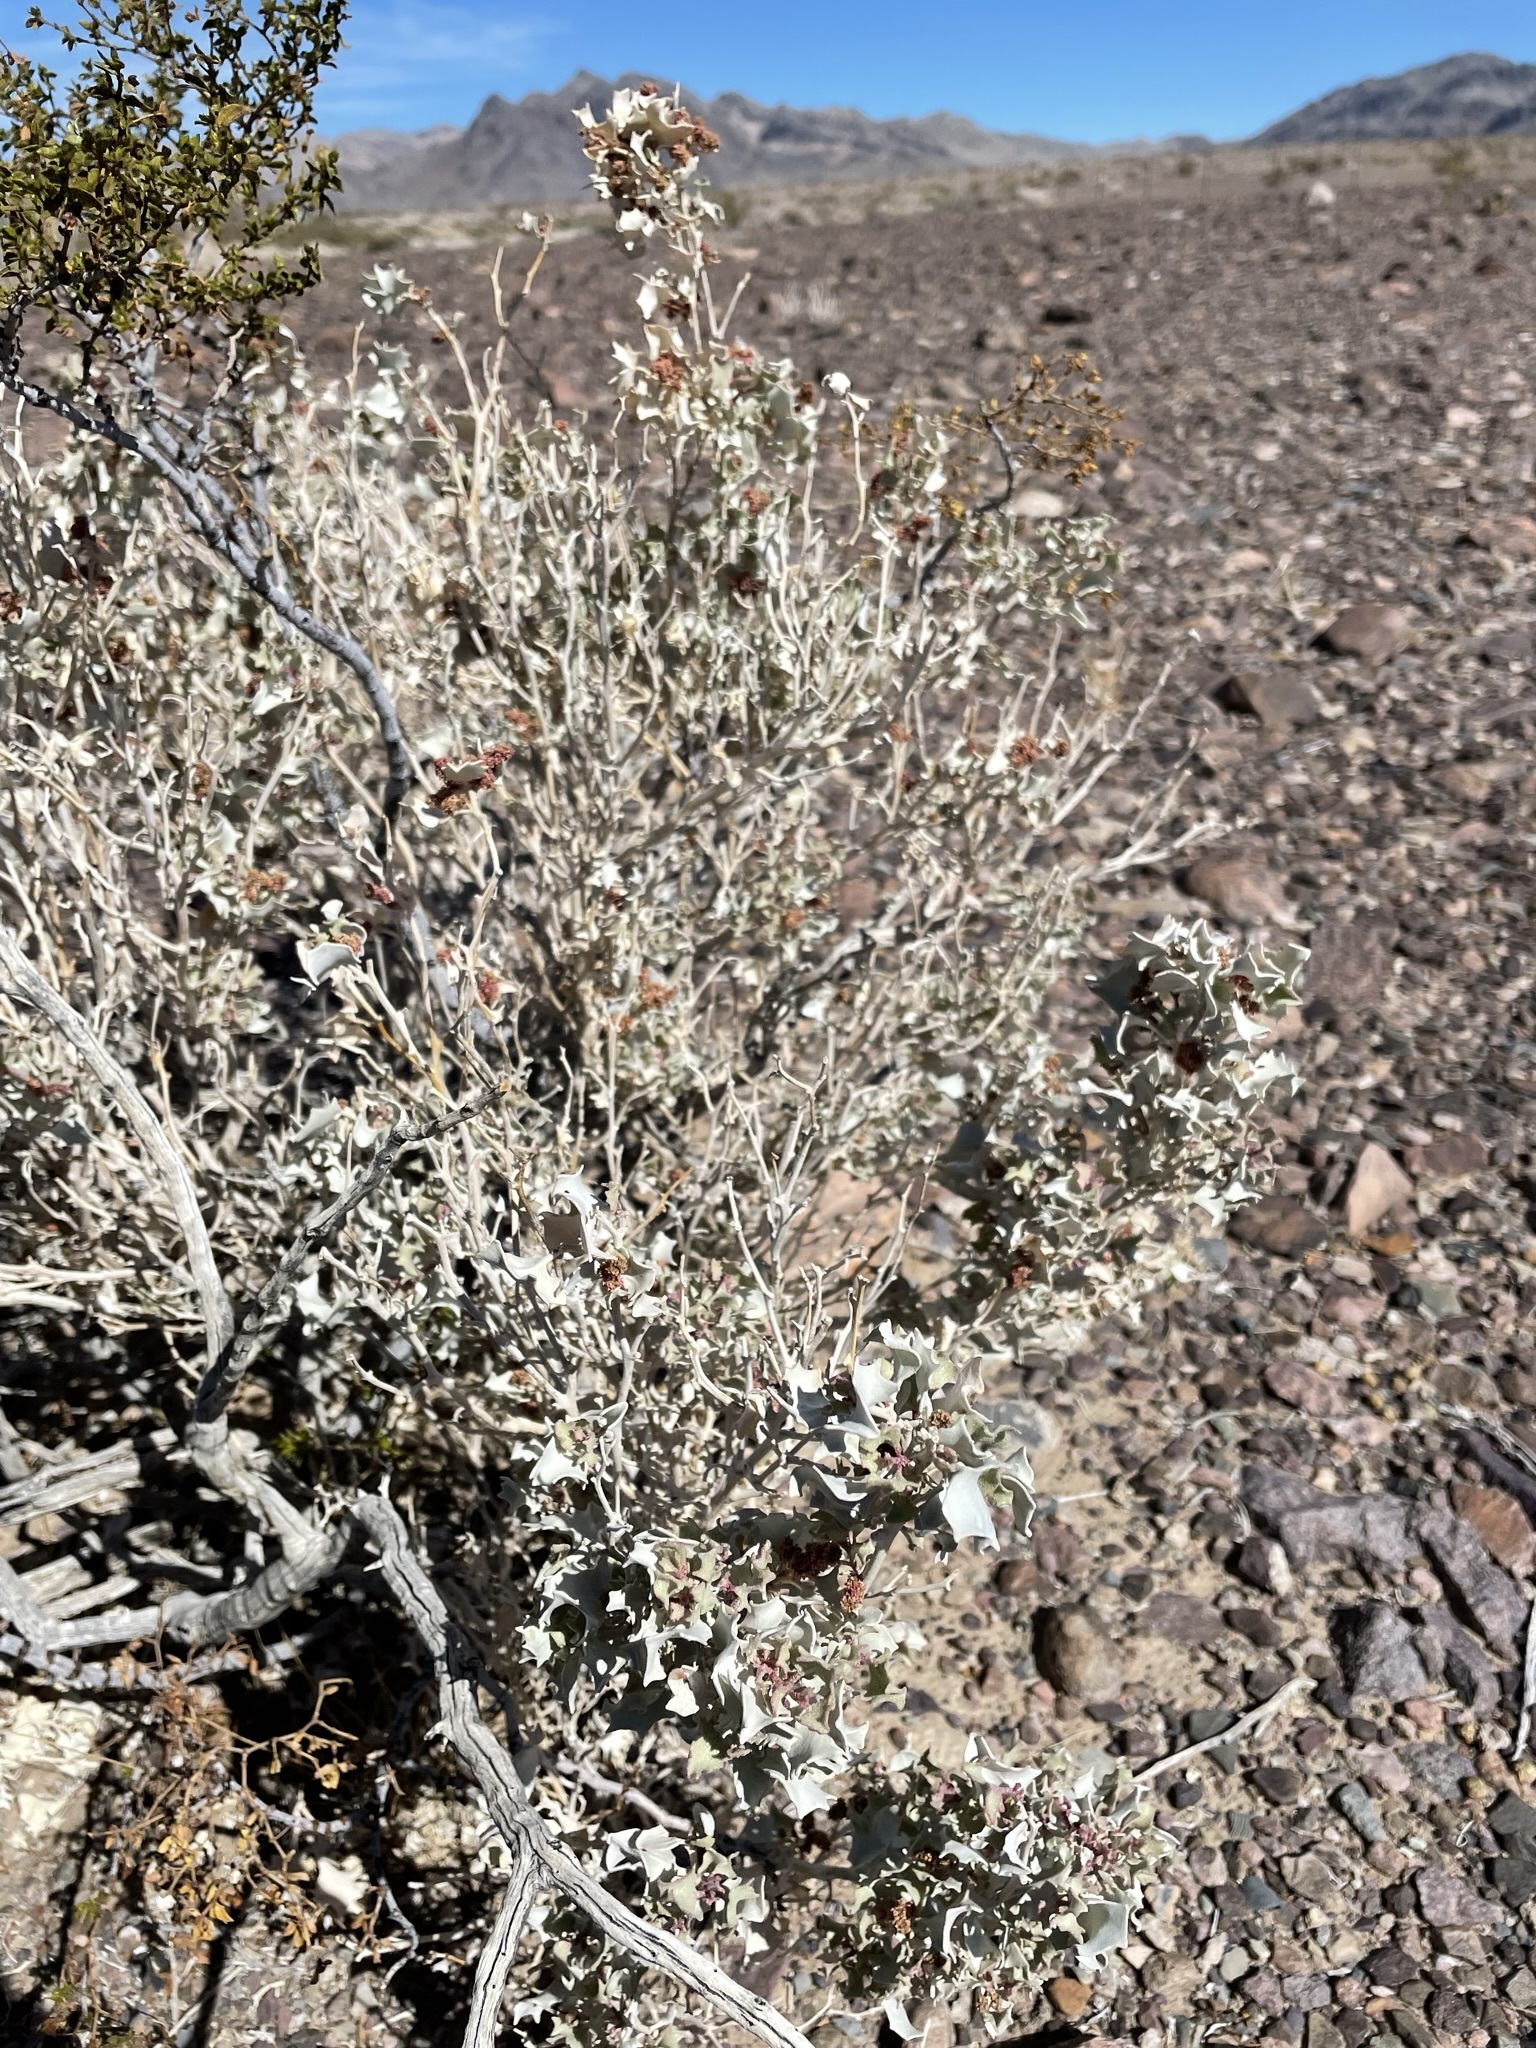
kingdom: Plantae
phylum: Tracheophyta
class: Magnoliopsida
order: Caryophyllales
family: Amaranthaceae
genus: Atriplex
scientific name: Atriplex hymenelytra
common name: Desert-holly
